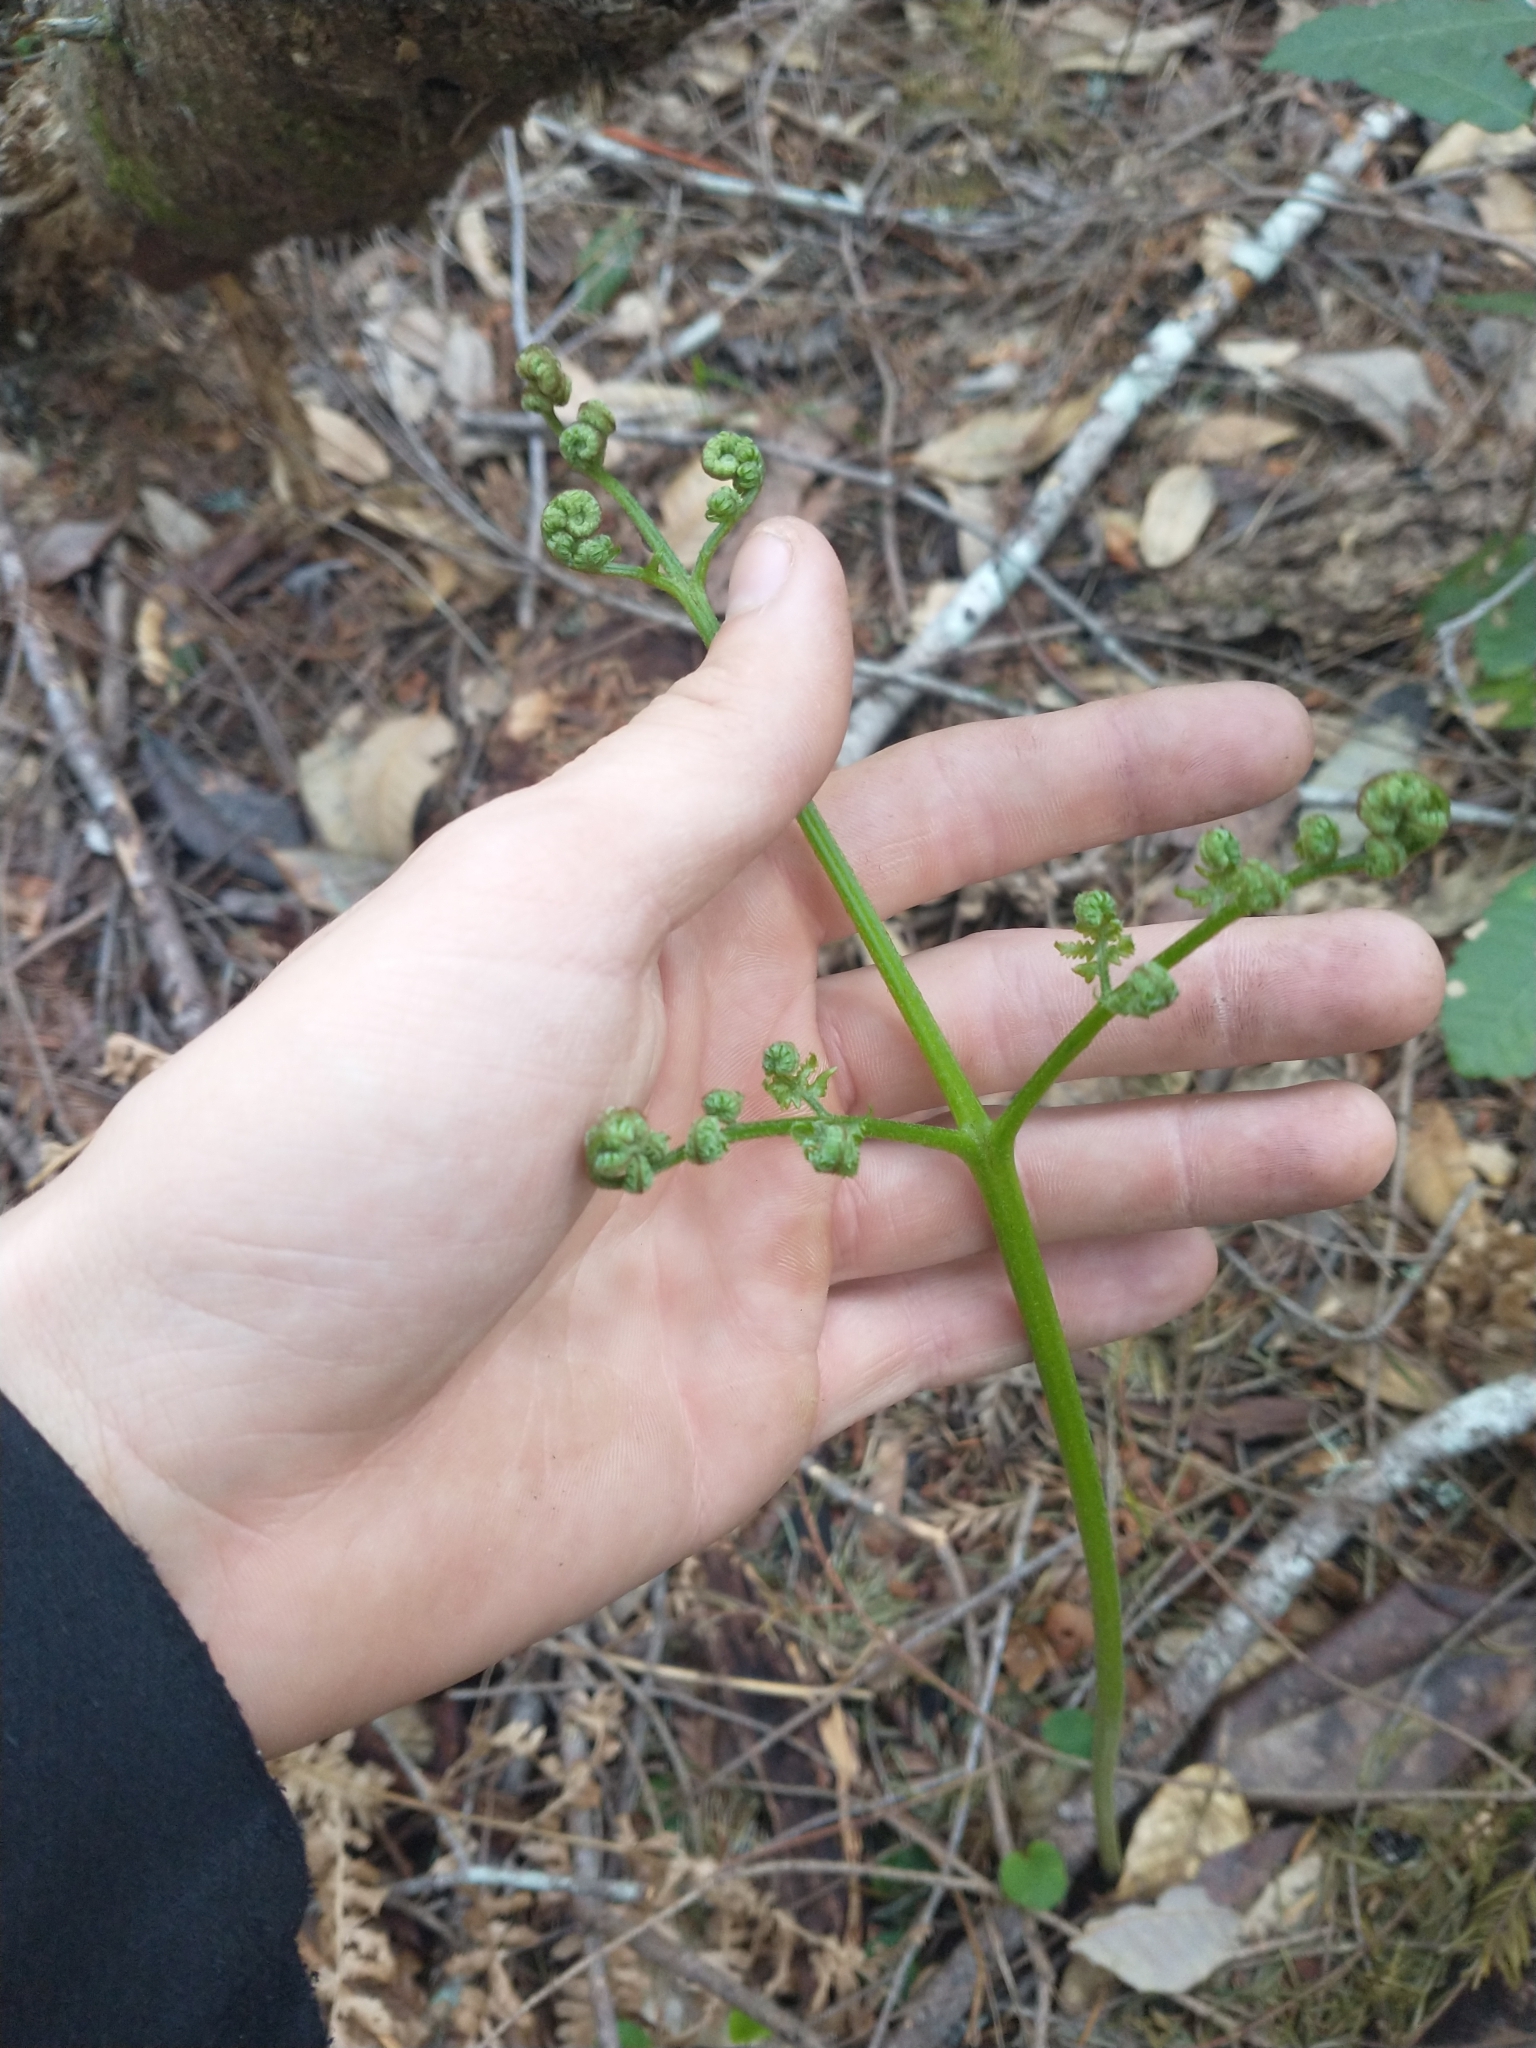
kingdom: Plantae
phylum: Tracheophyta
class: Polypodiopsida
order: Polypodiales
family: Dennstaedtiaceae
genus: Pteridium
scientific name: Pteridium aquilinum
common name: Bracken
